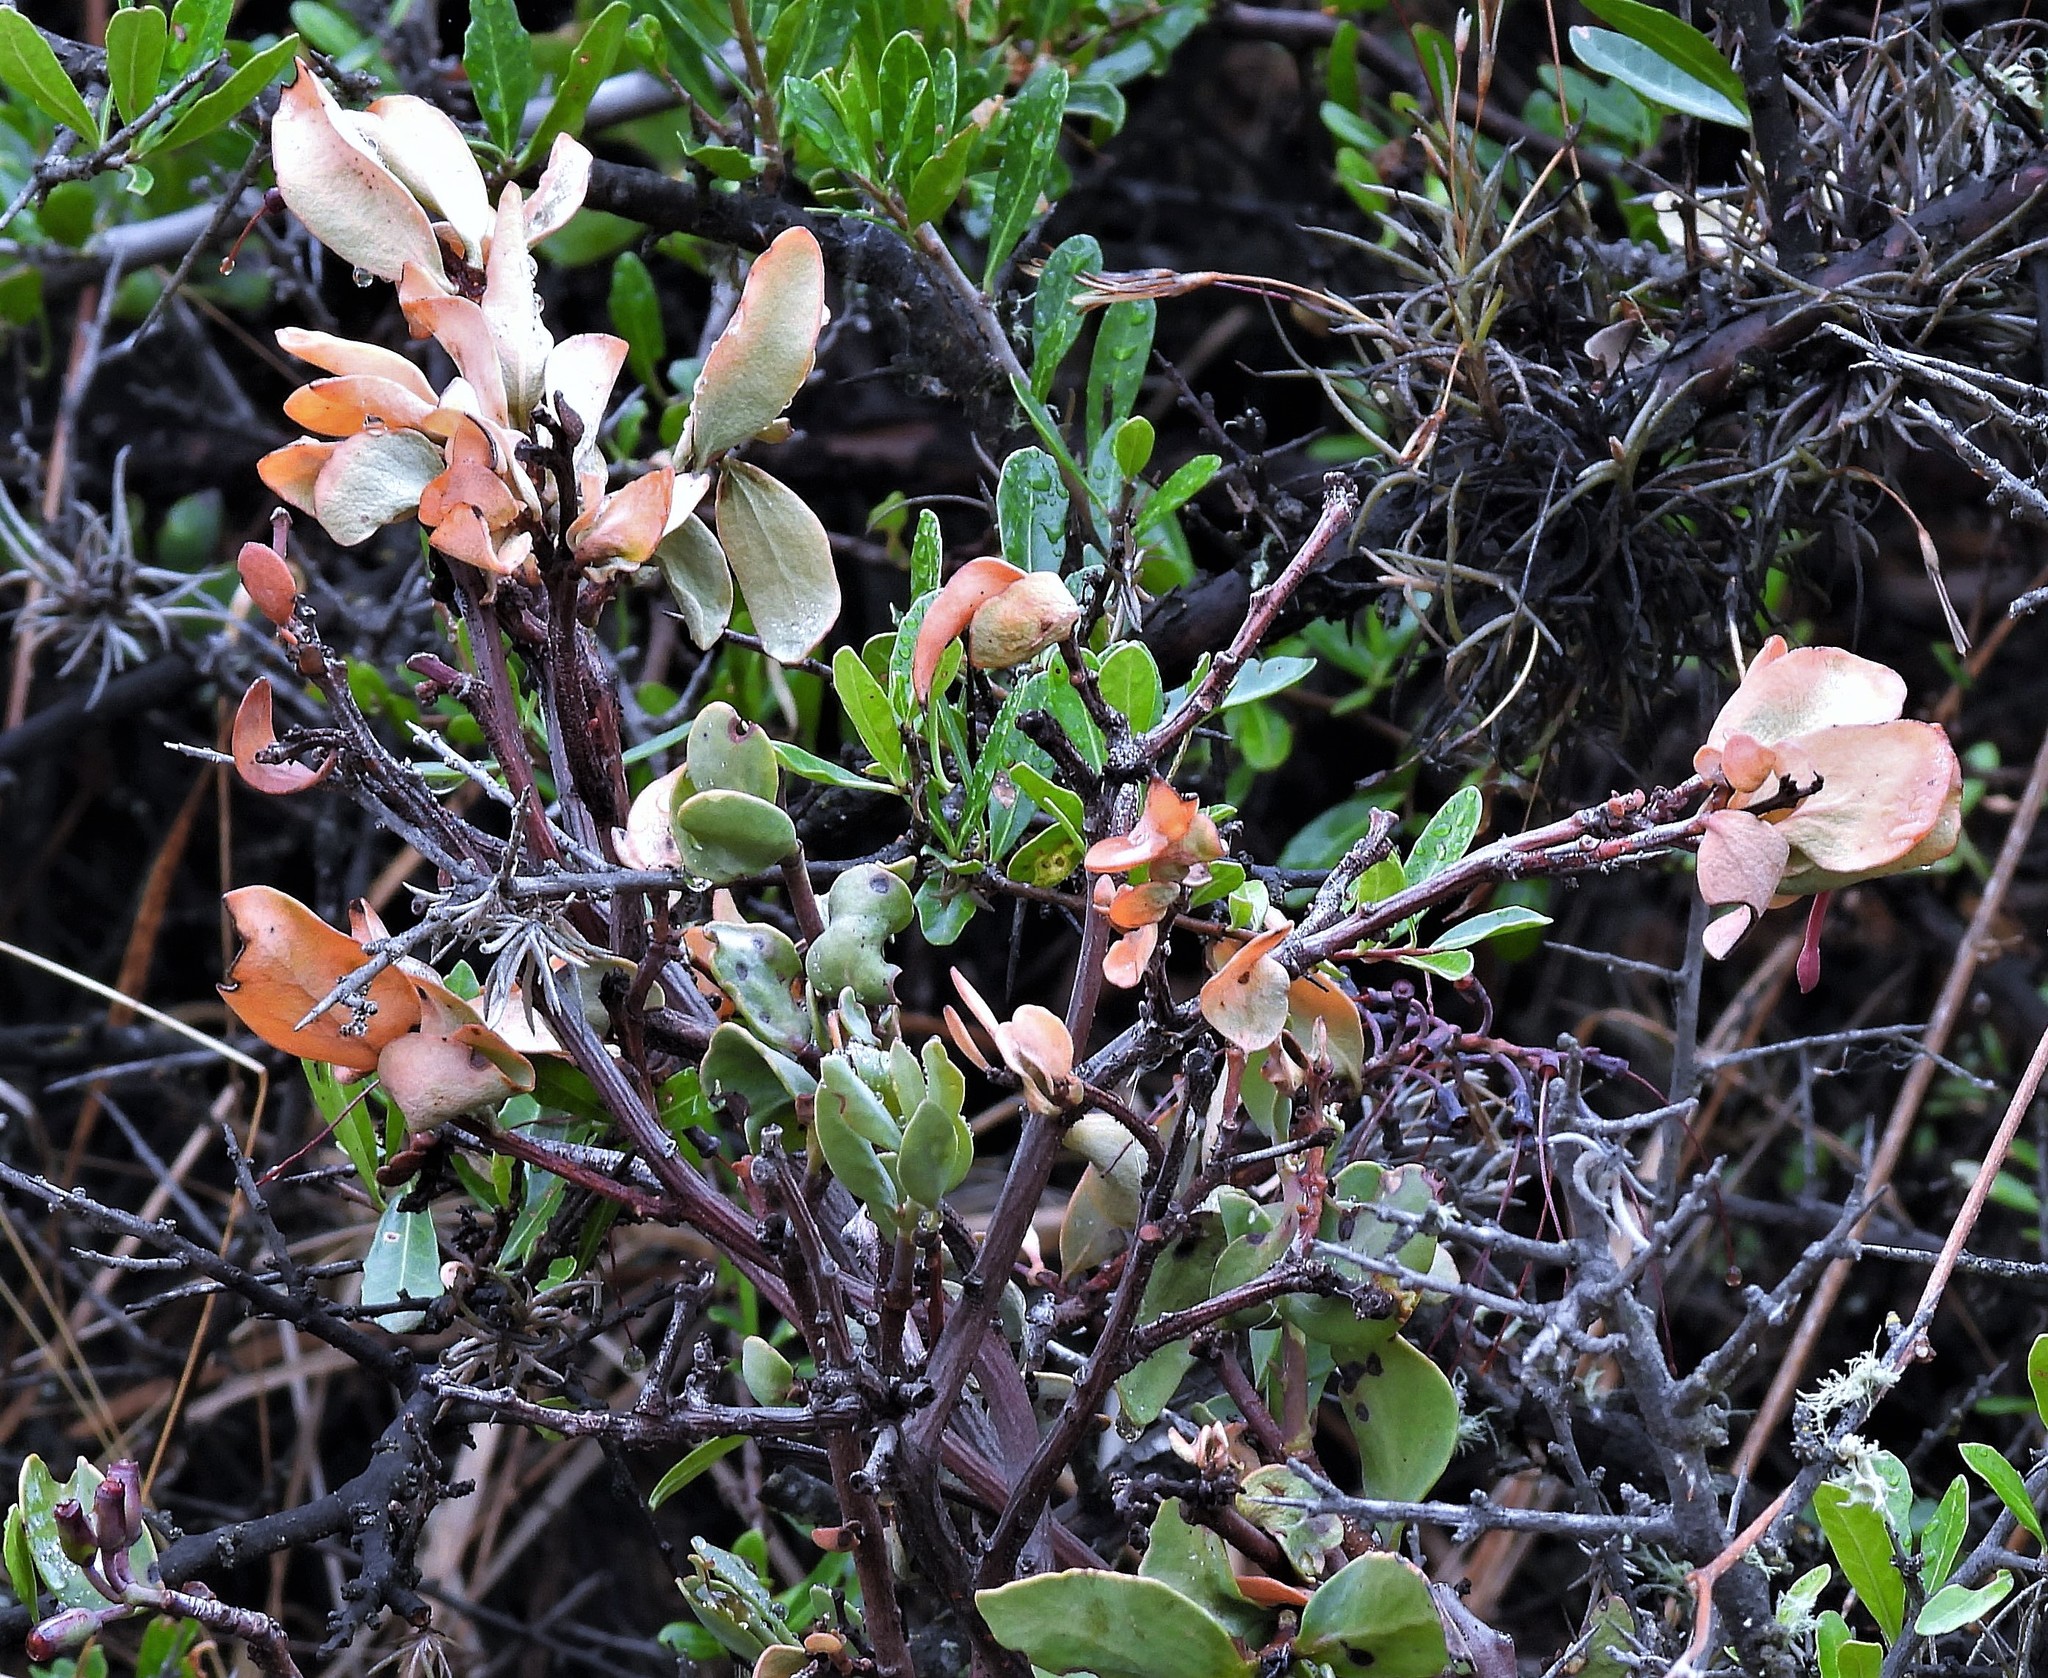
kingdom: Plantae
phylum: Tracheophyta
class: Magnoliopsida
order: Santalales
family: Loranthaceae
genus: Tristerix
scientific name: Tristerix verticillatus
